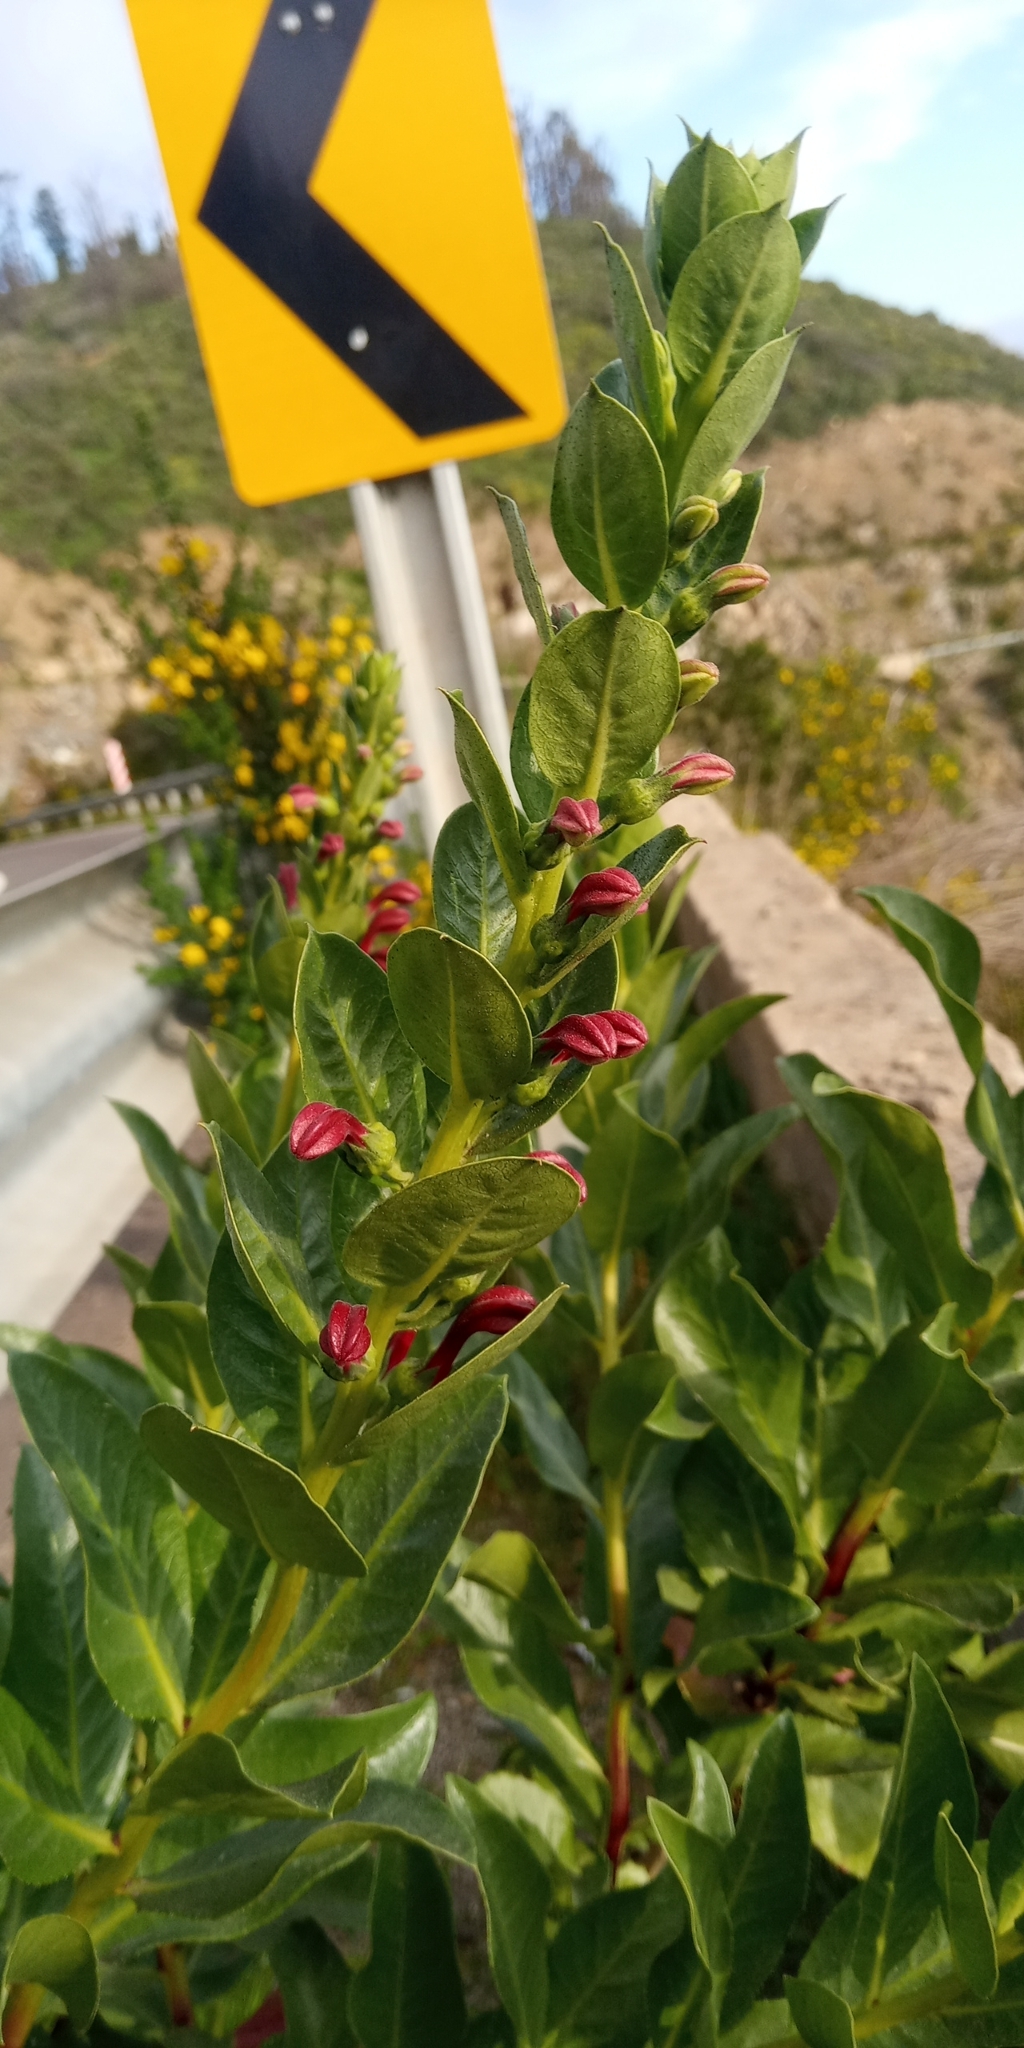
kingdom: Plantae
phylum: Tracheophyta
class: Magnoliopsida
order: Asterales
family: Campanulaceae
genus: Lobelia
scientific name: Lobelia polyphylla
